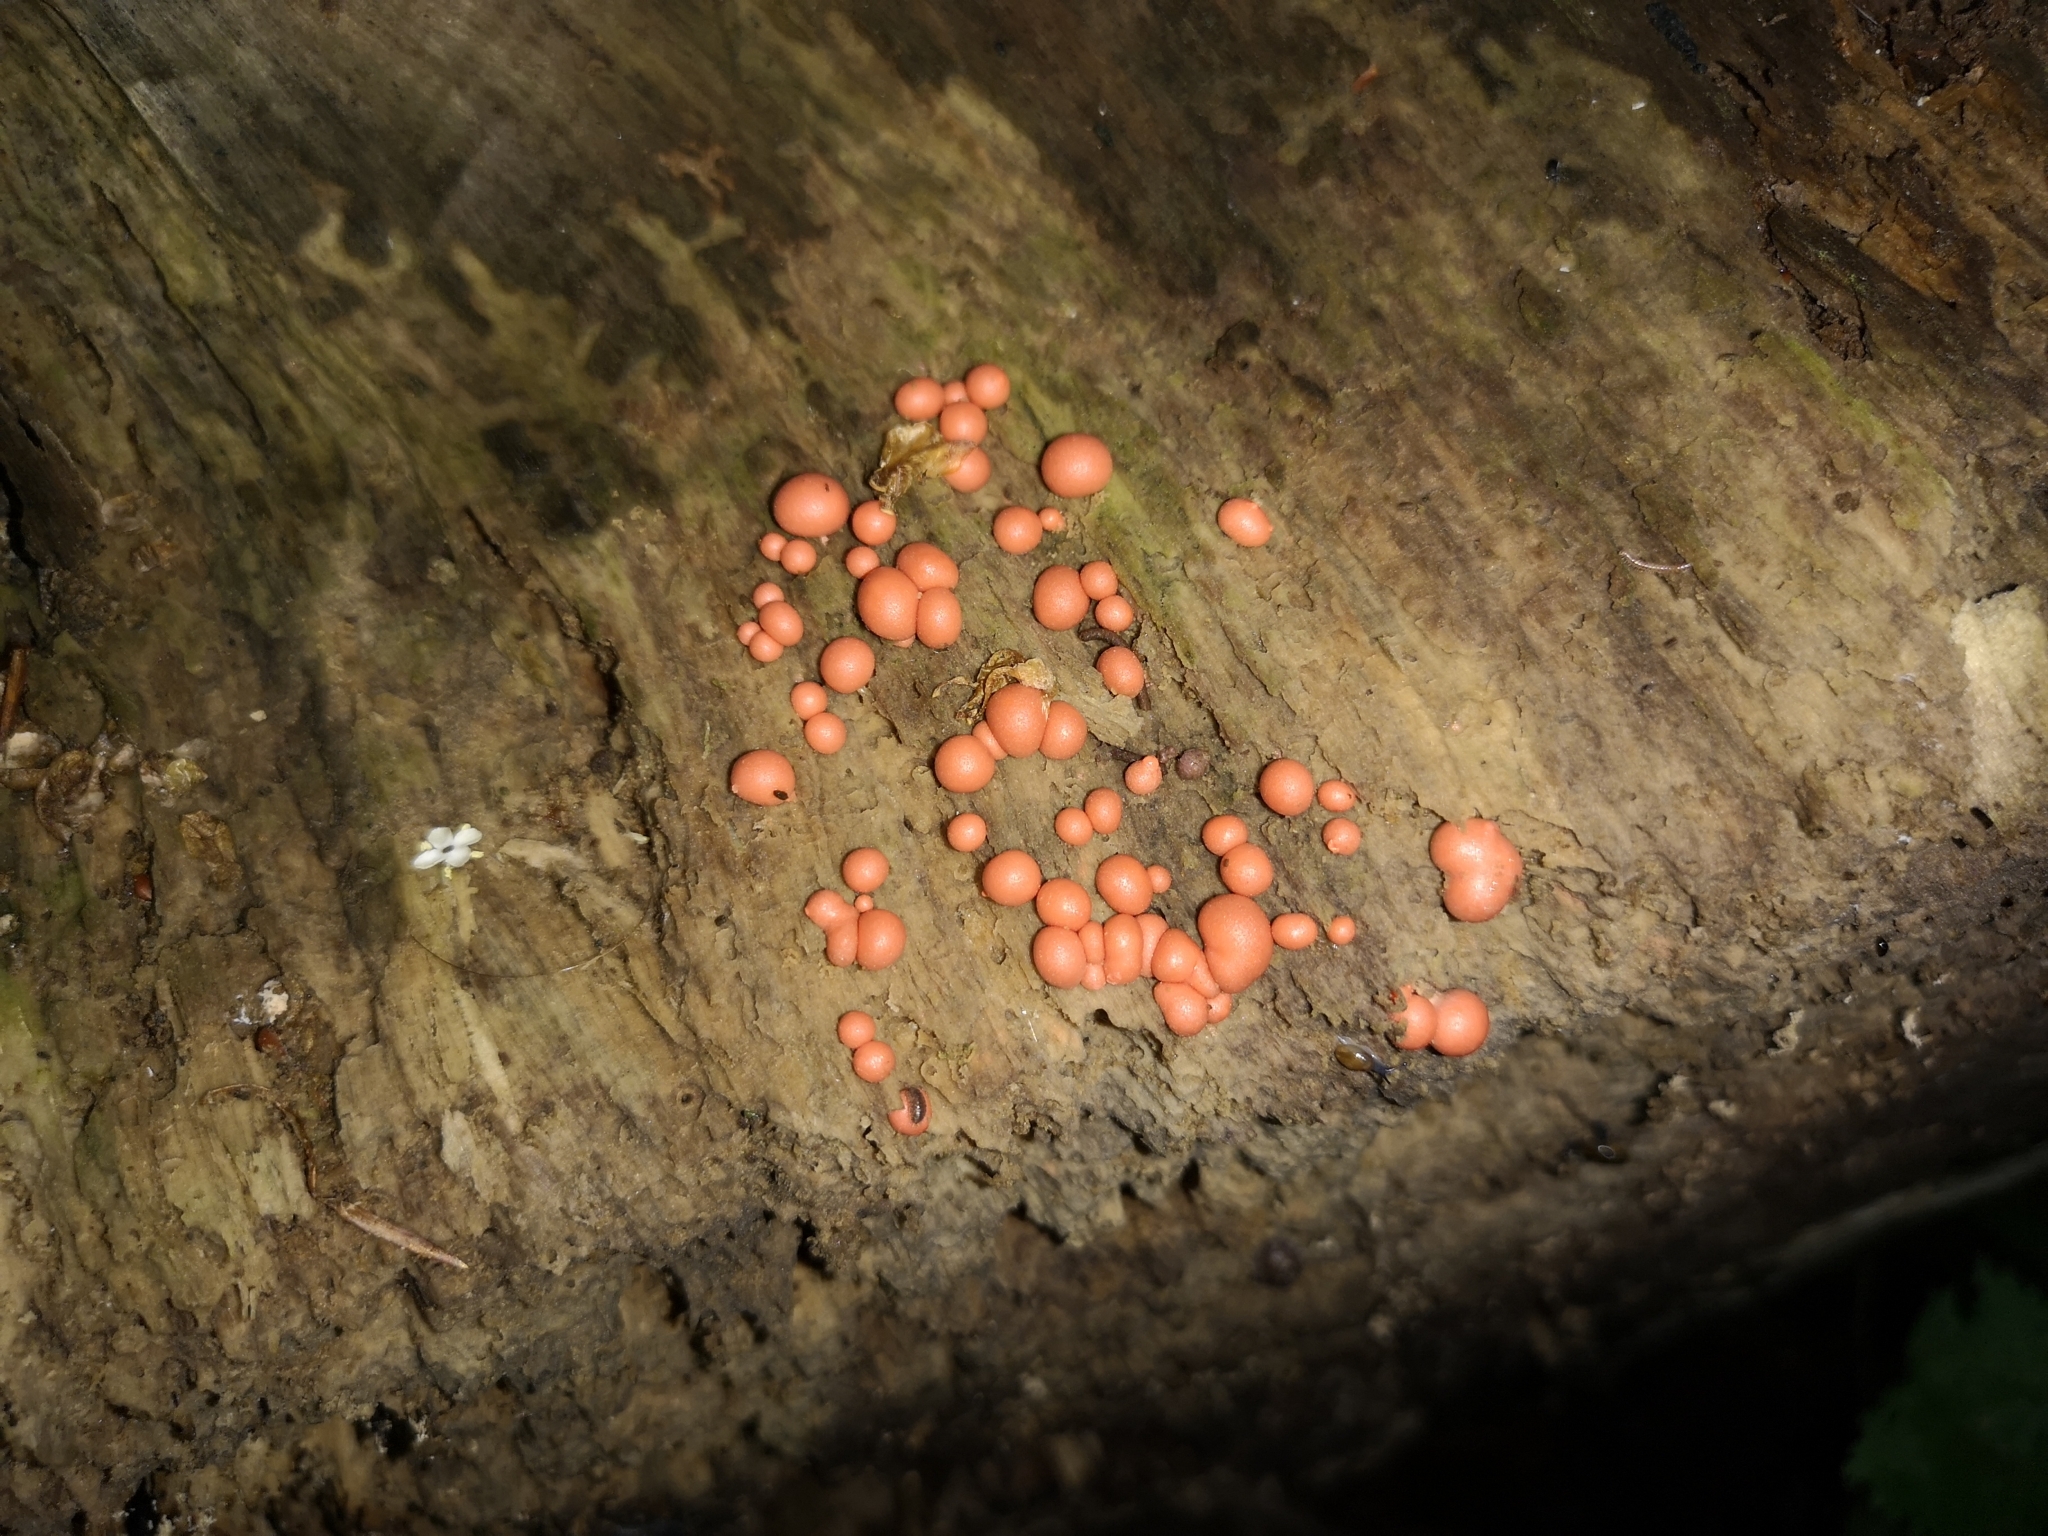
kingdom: Protozoa
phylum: Mycetozoa
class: Myxomycetes
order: Cribrariales
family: Tubiferaceae
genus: Lycogala
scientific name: Lycogala epidendrum
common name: Wolf's milk
